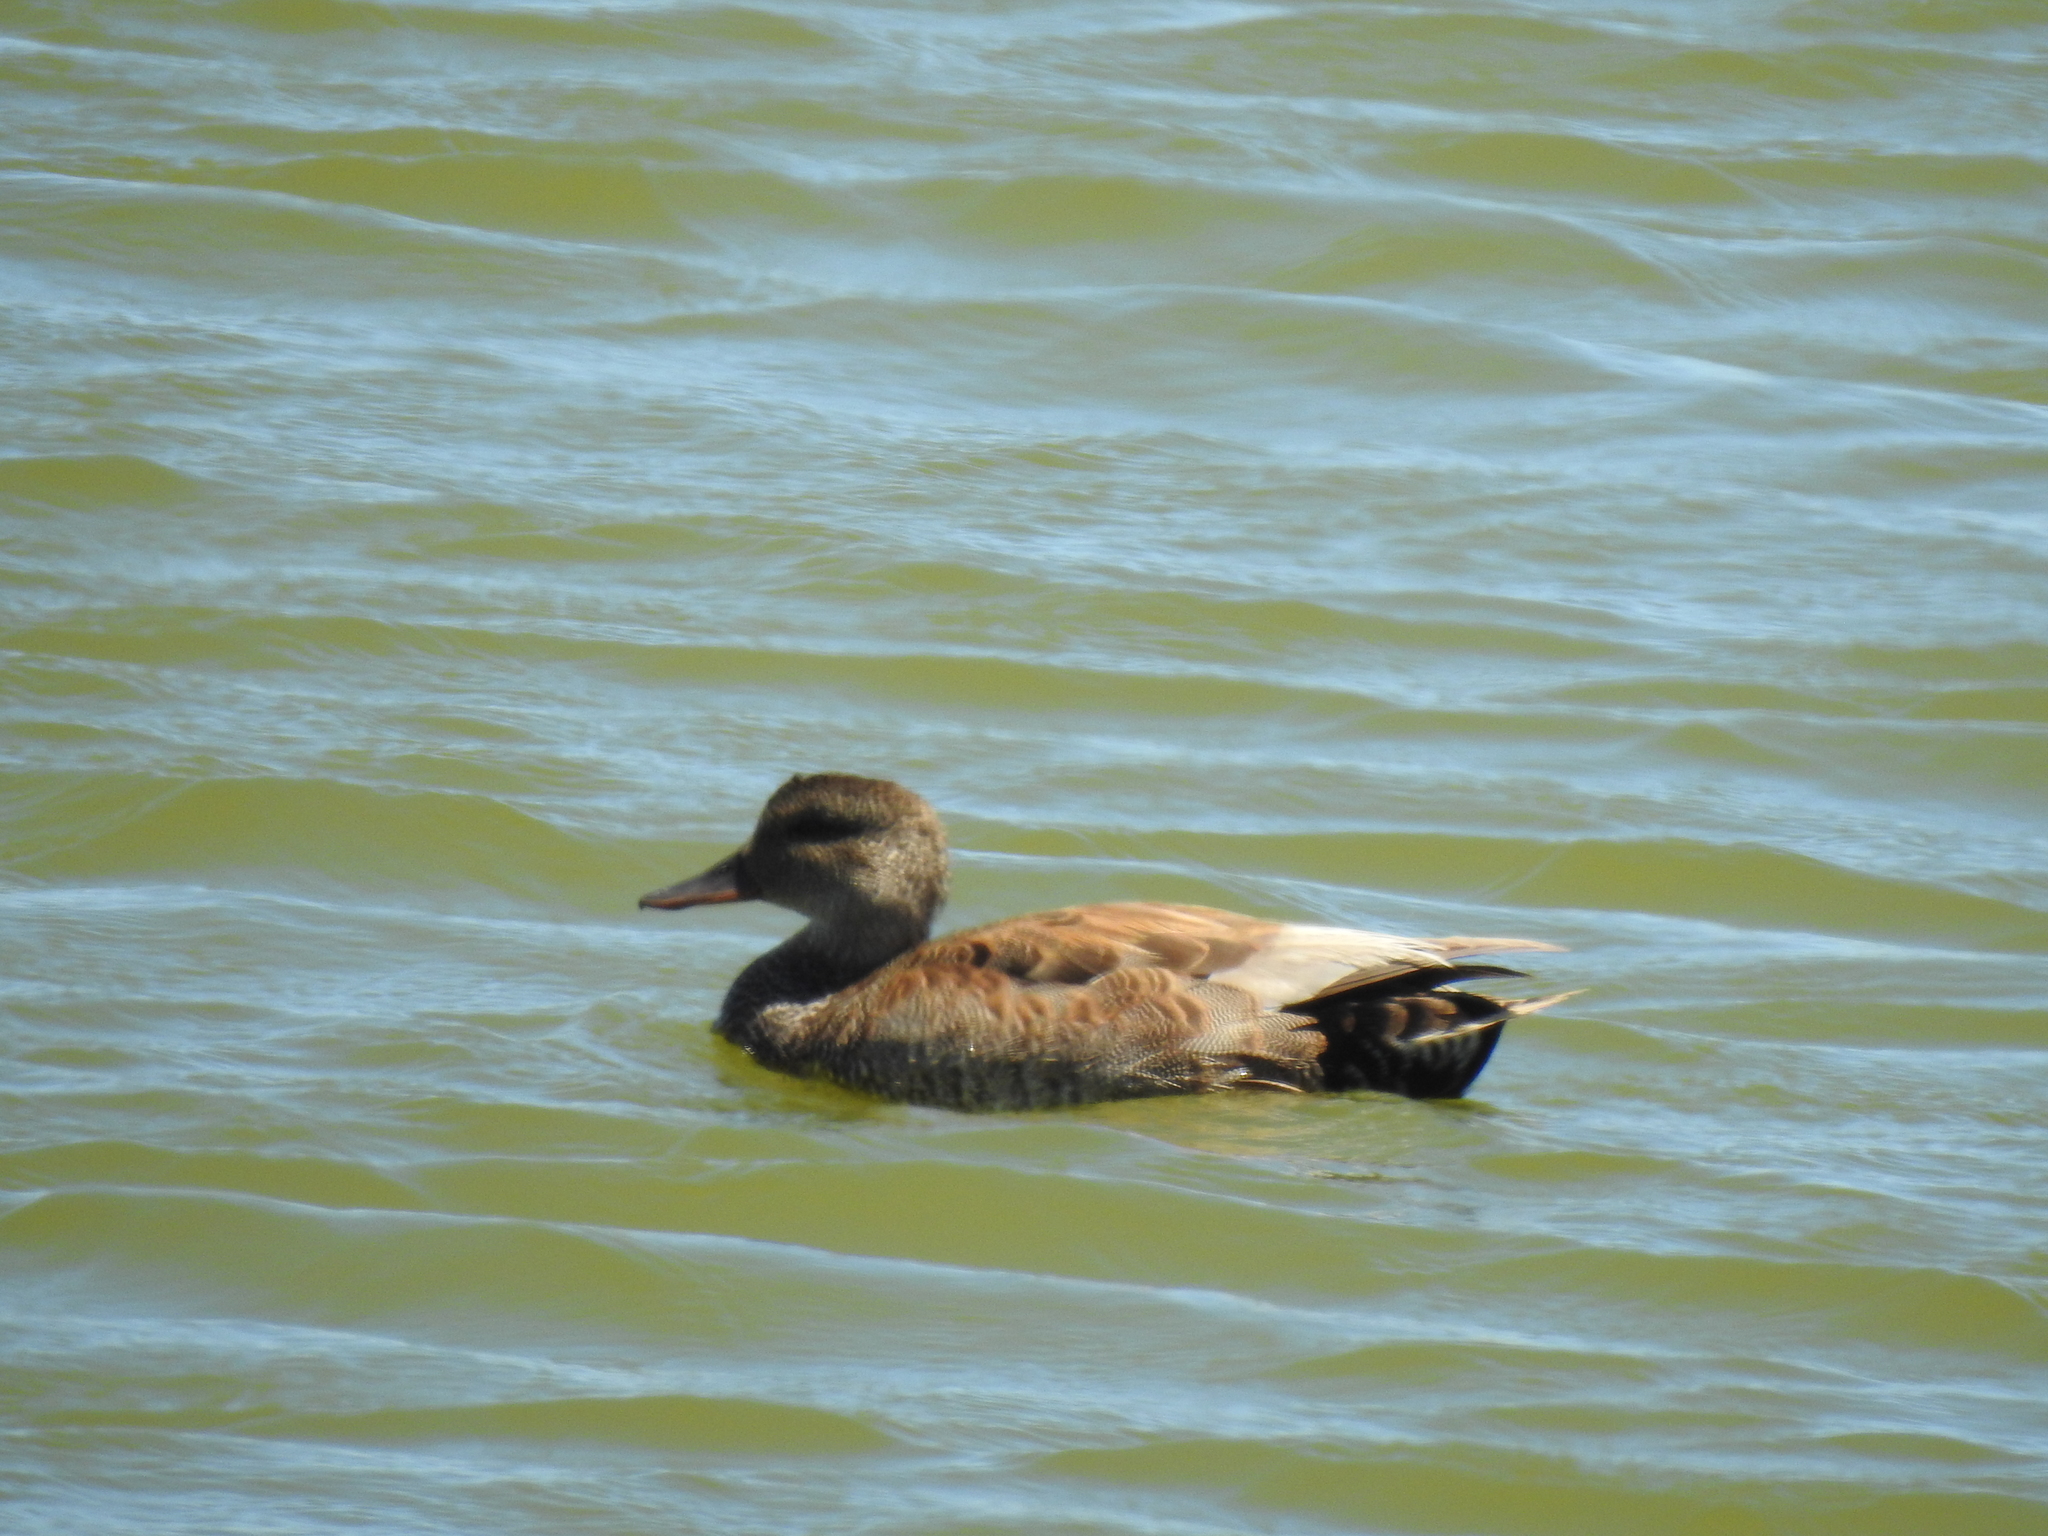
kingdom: Animalia
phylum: Chordata
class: Aves
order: Anseriformes
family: Anatidae
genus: Mareca
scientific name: Mareca strepera
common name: Gadwall
